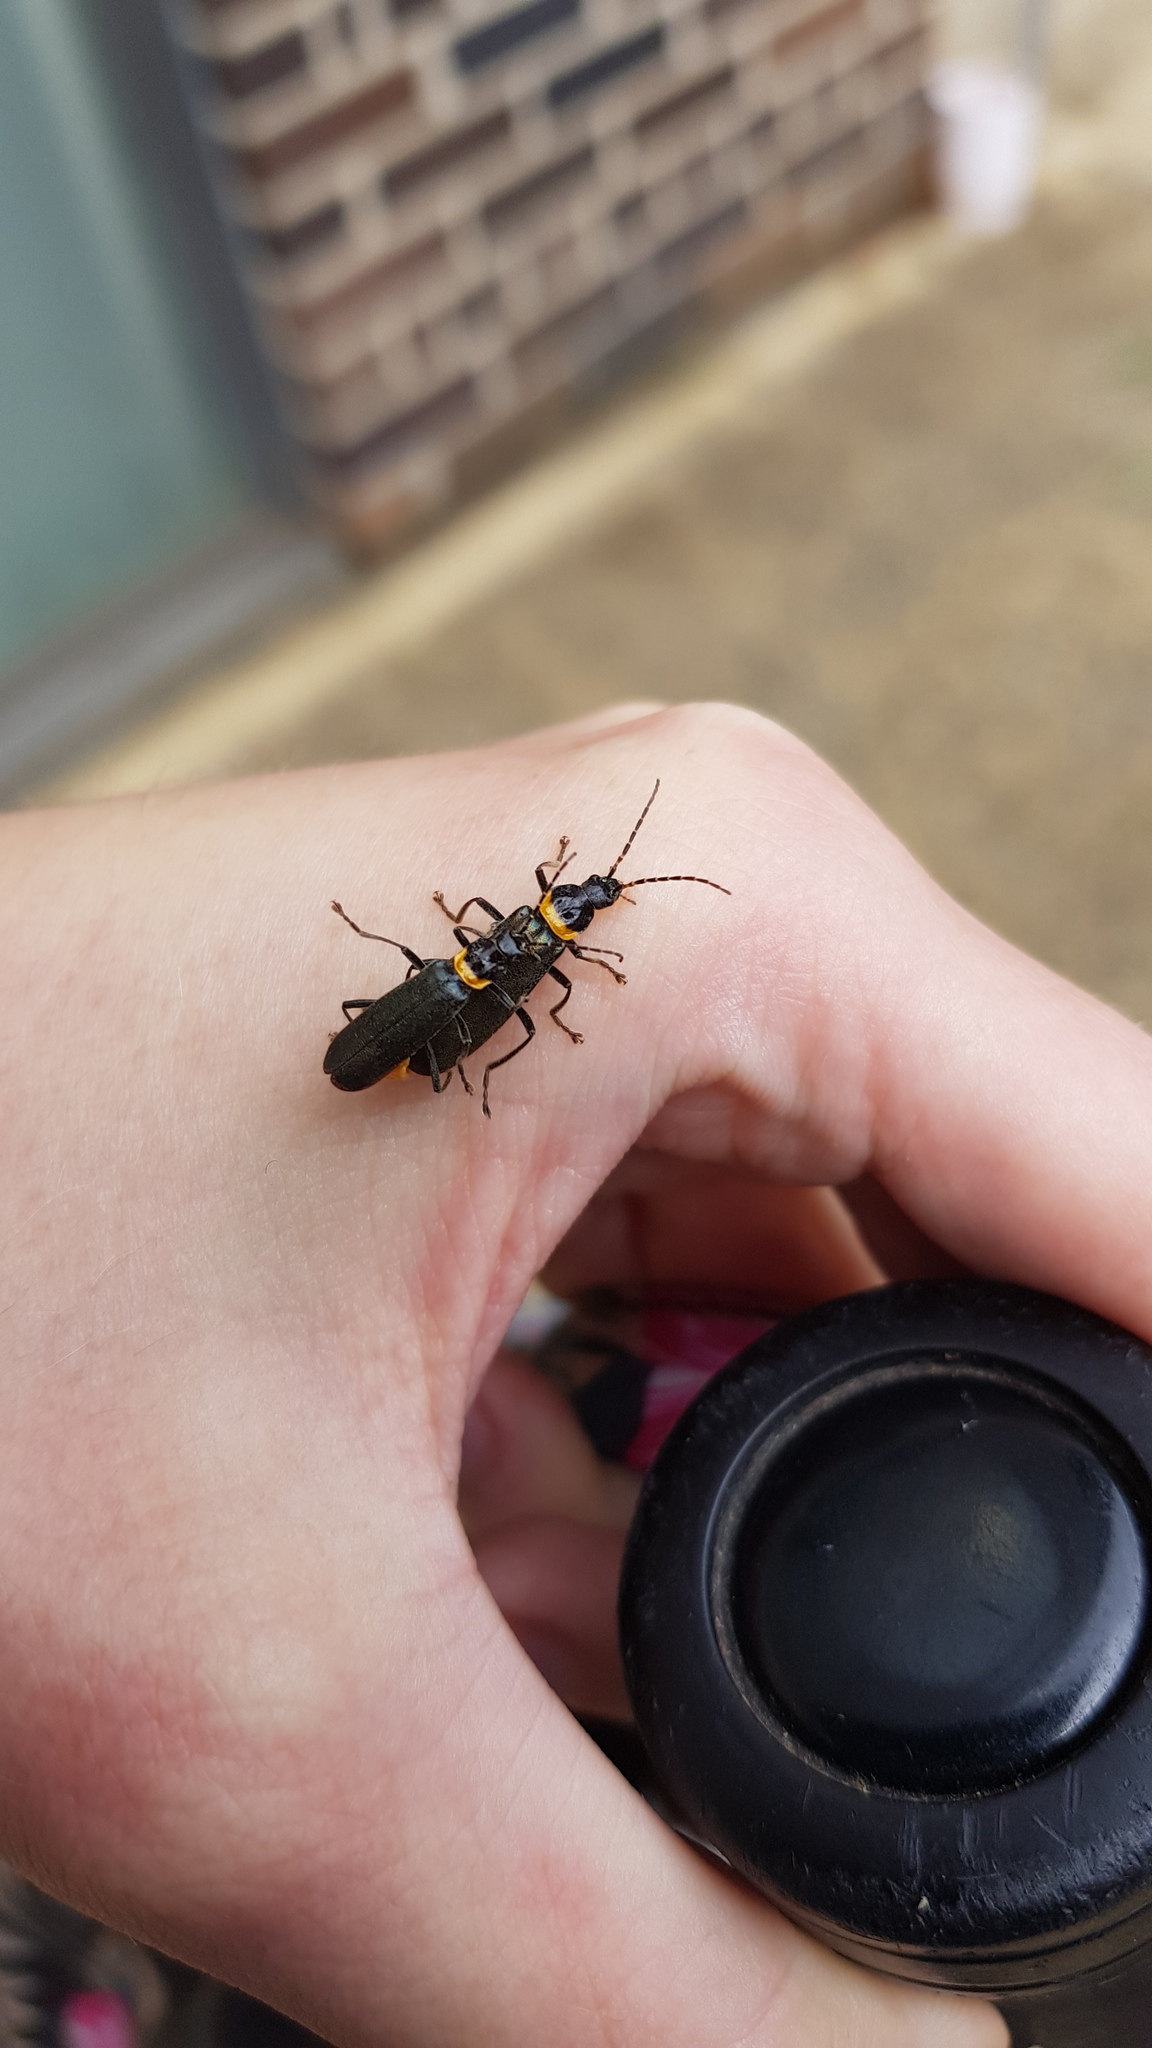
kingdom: Animalia
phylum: Arthropoda
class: Insecta
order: Coleoptera
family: Cantharidae
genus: Chauliognathus
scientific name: Chauliognathus
